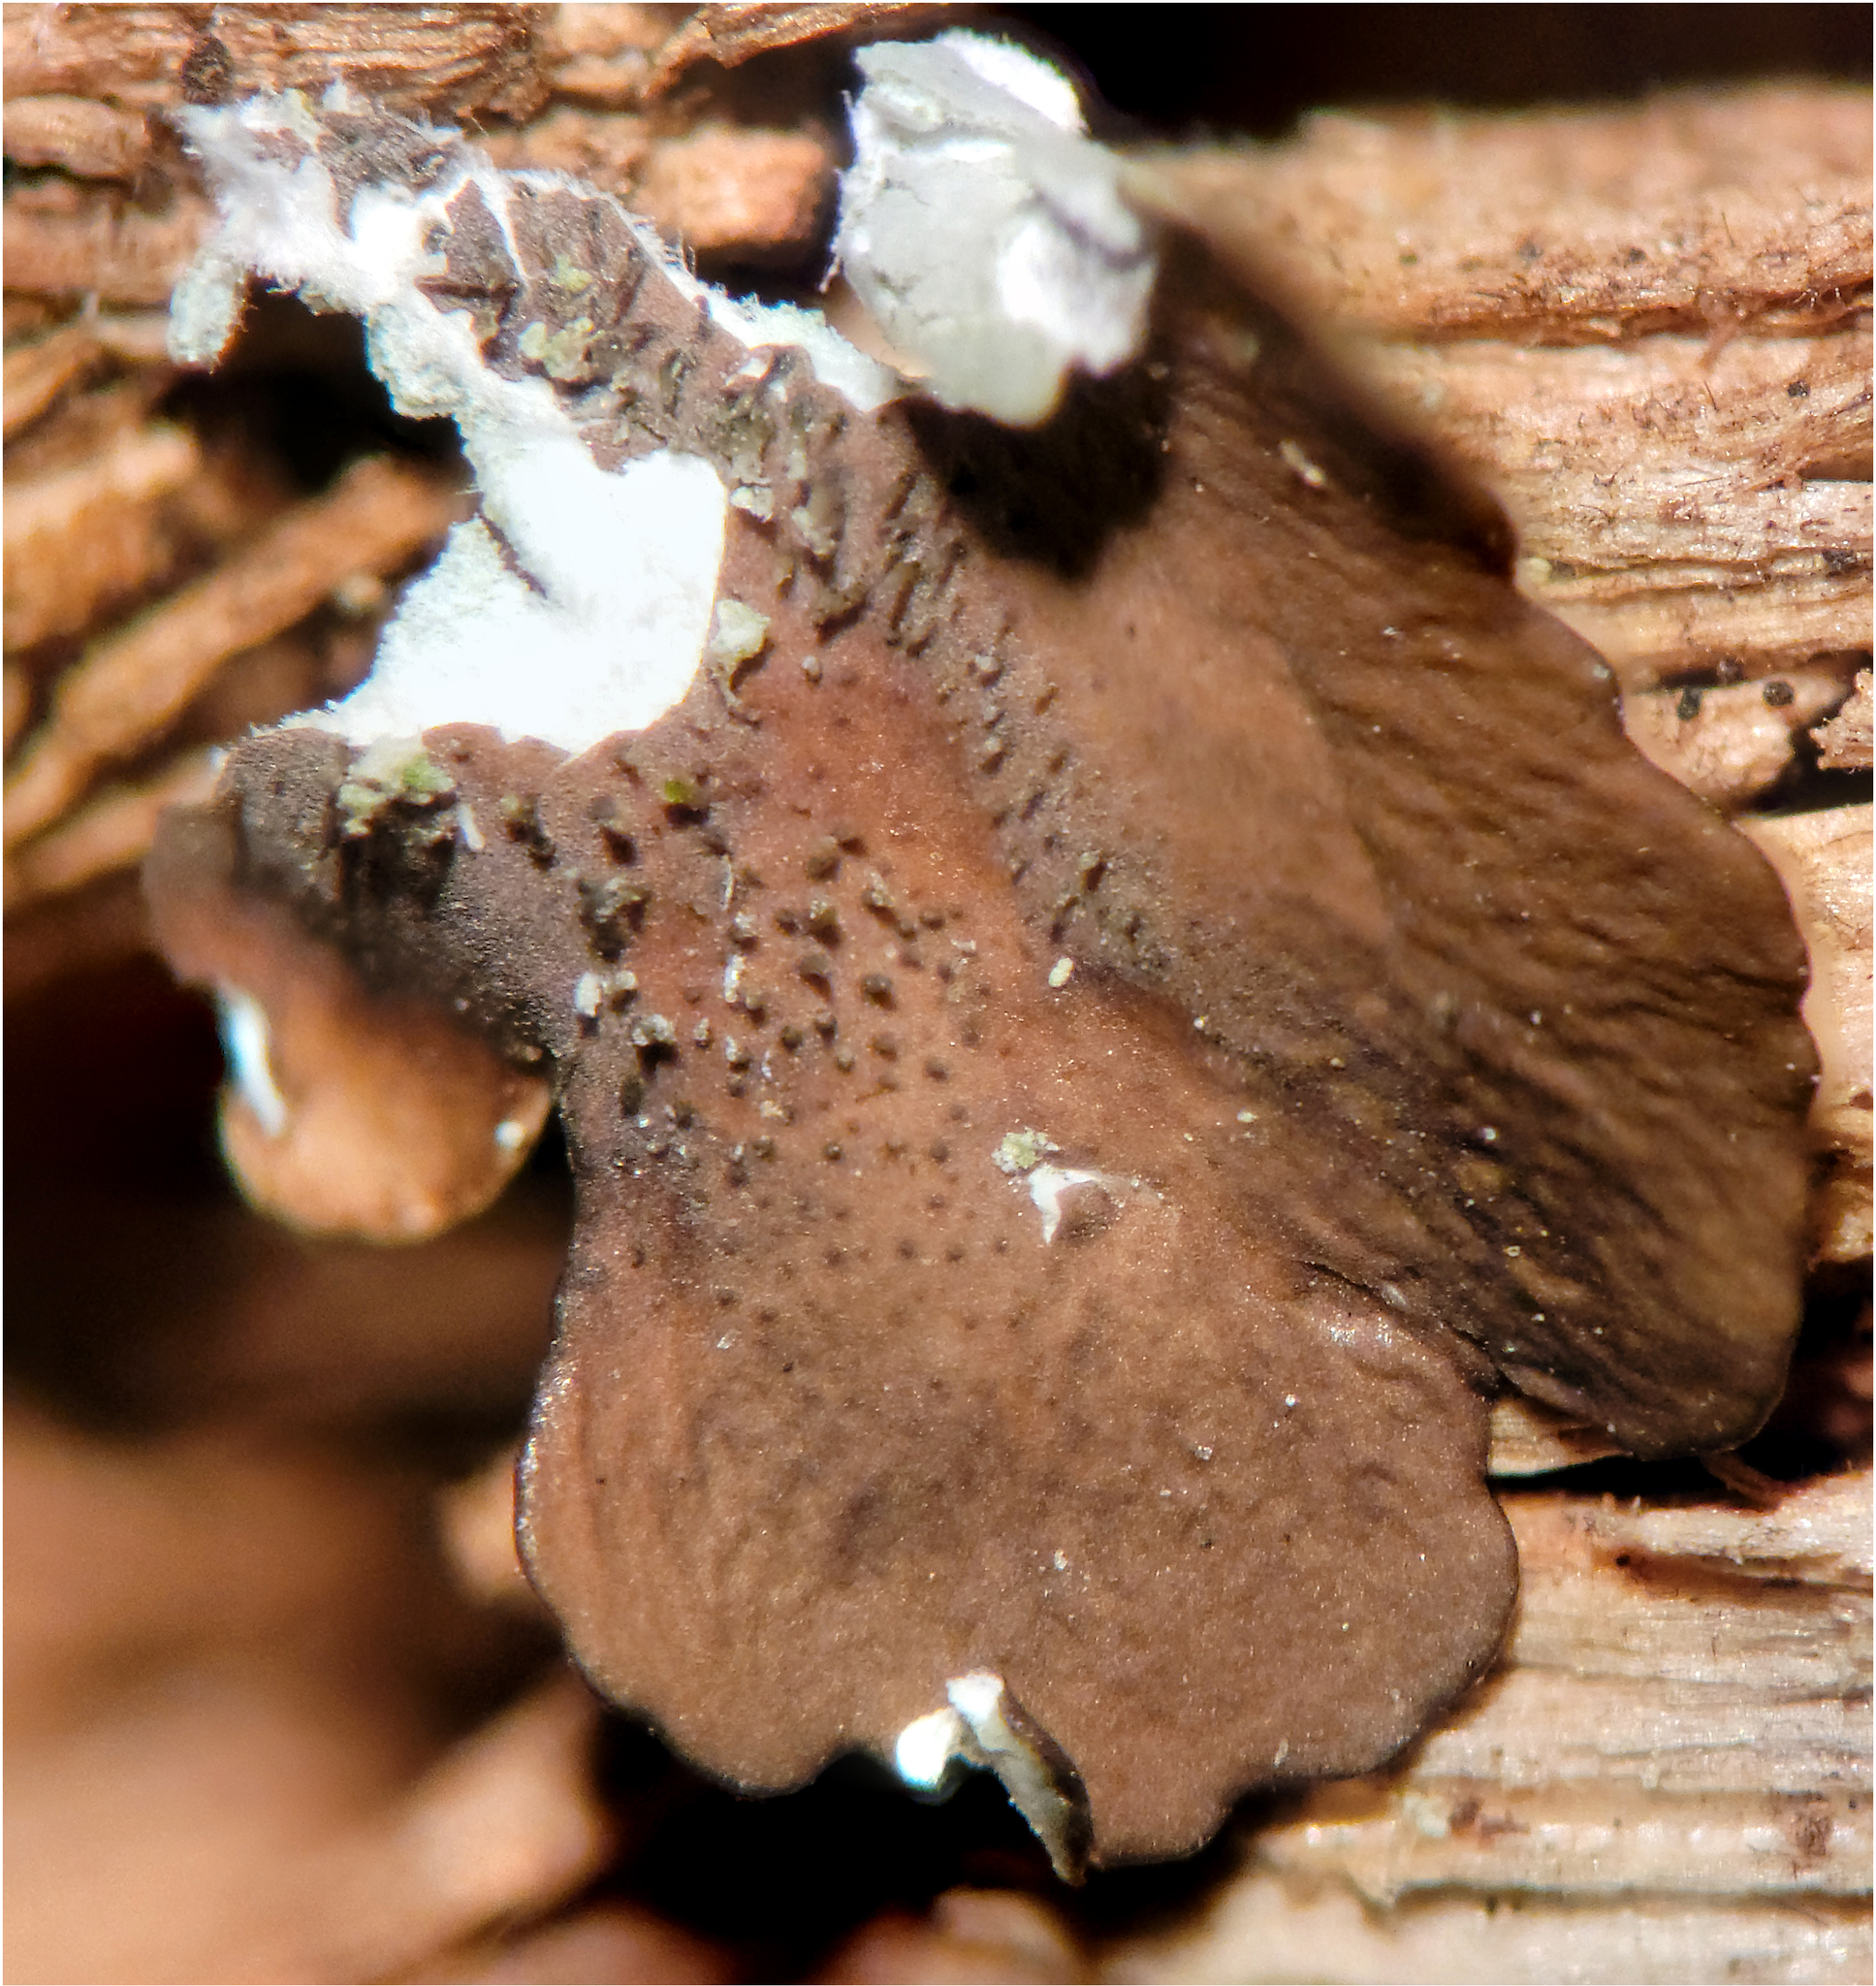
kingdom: Fungi
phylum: Ascomycota
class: Lecanoromycetes
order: Lecanorales
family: Parmeliaceae
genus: Canoparmelia
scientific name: Canoparmelia texana
